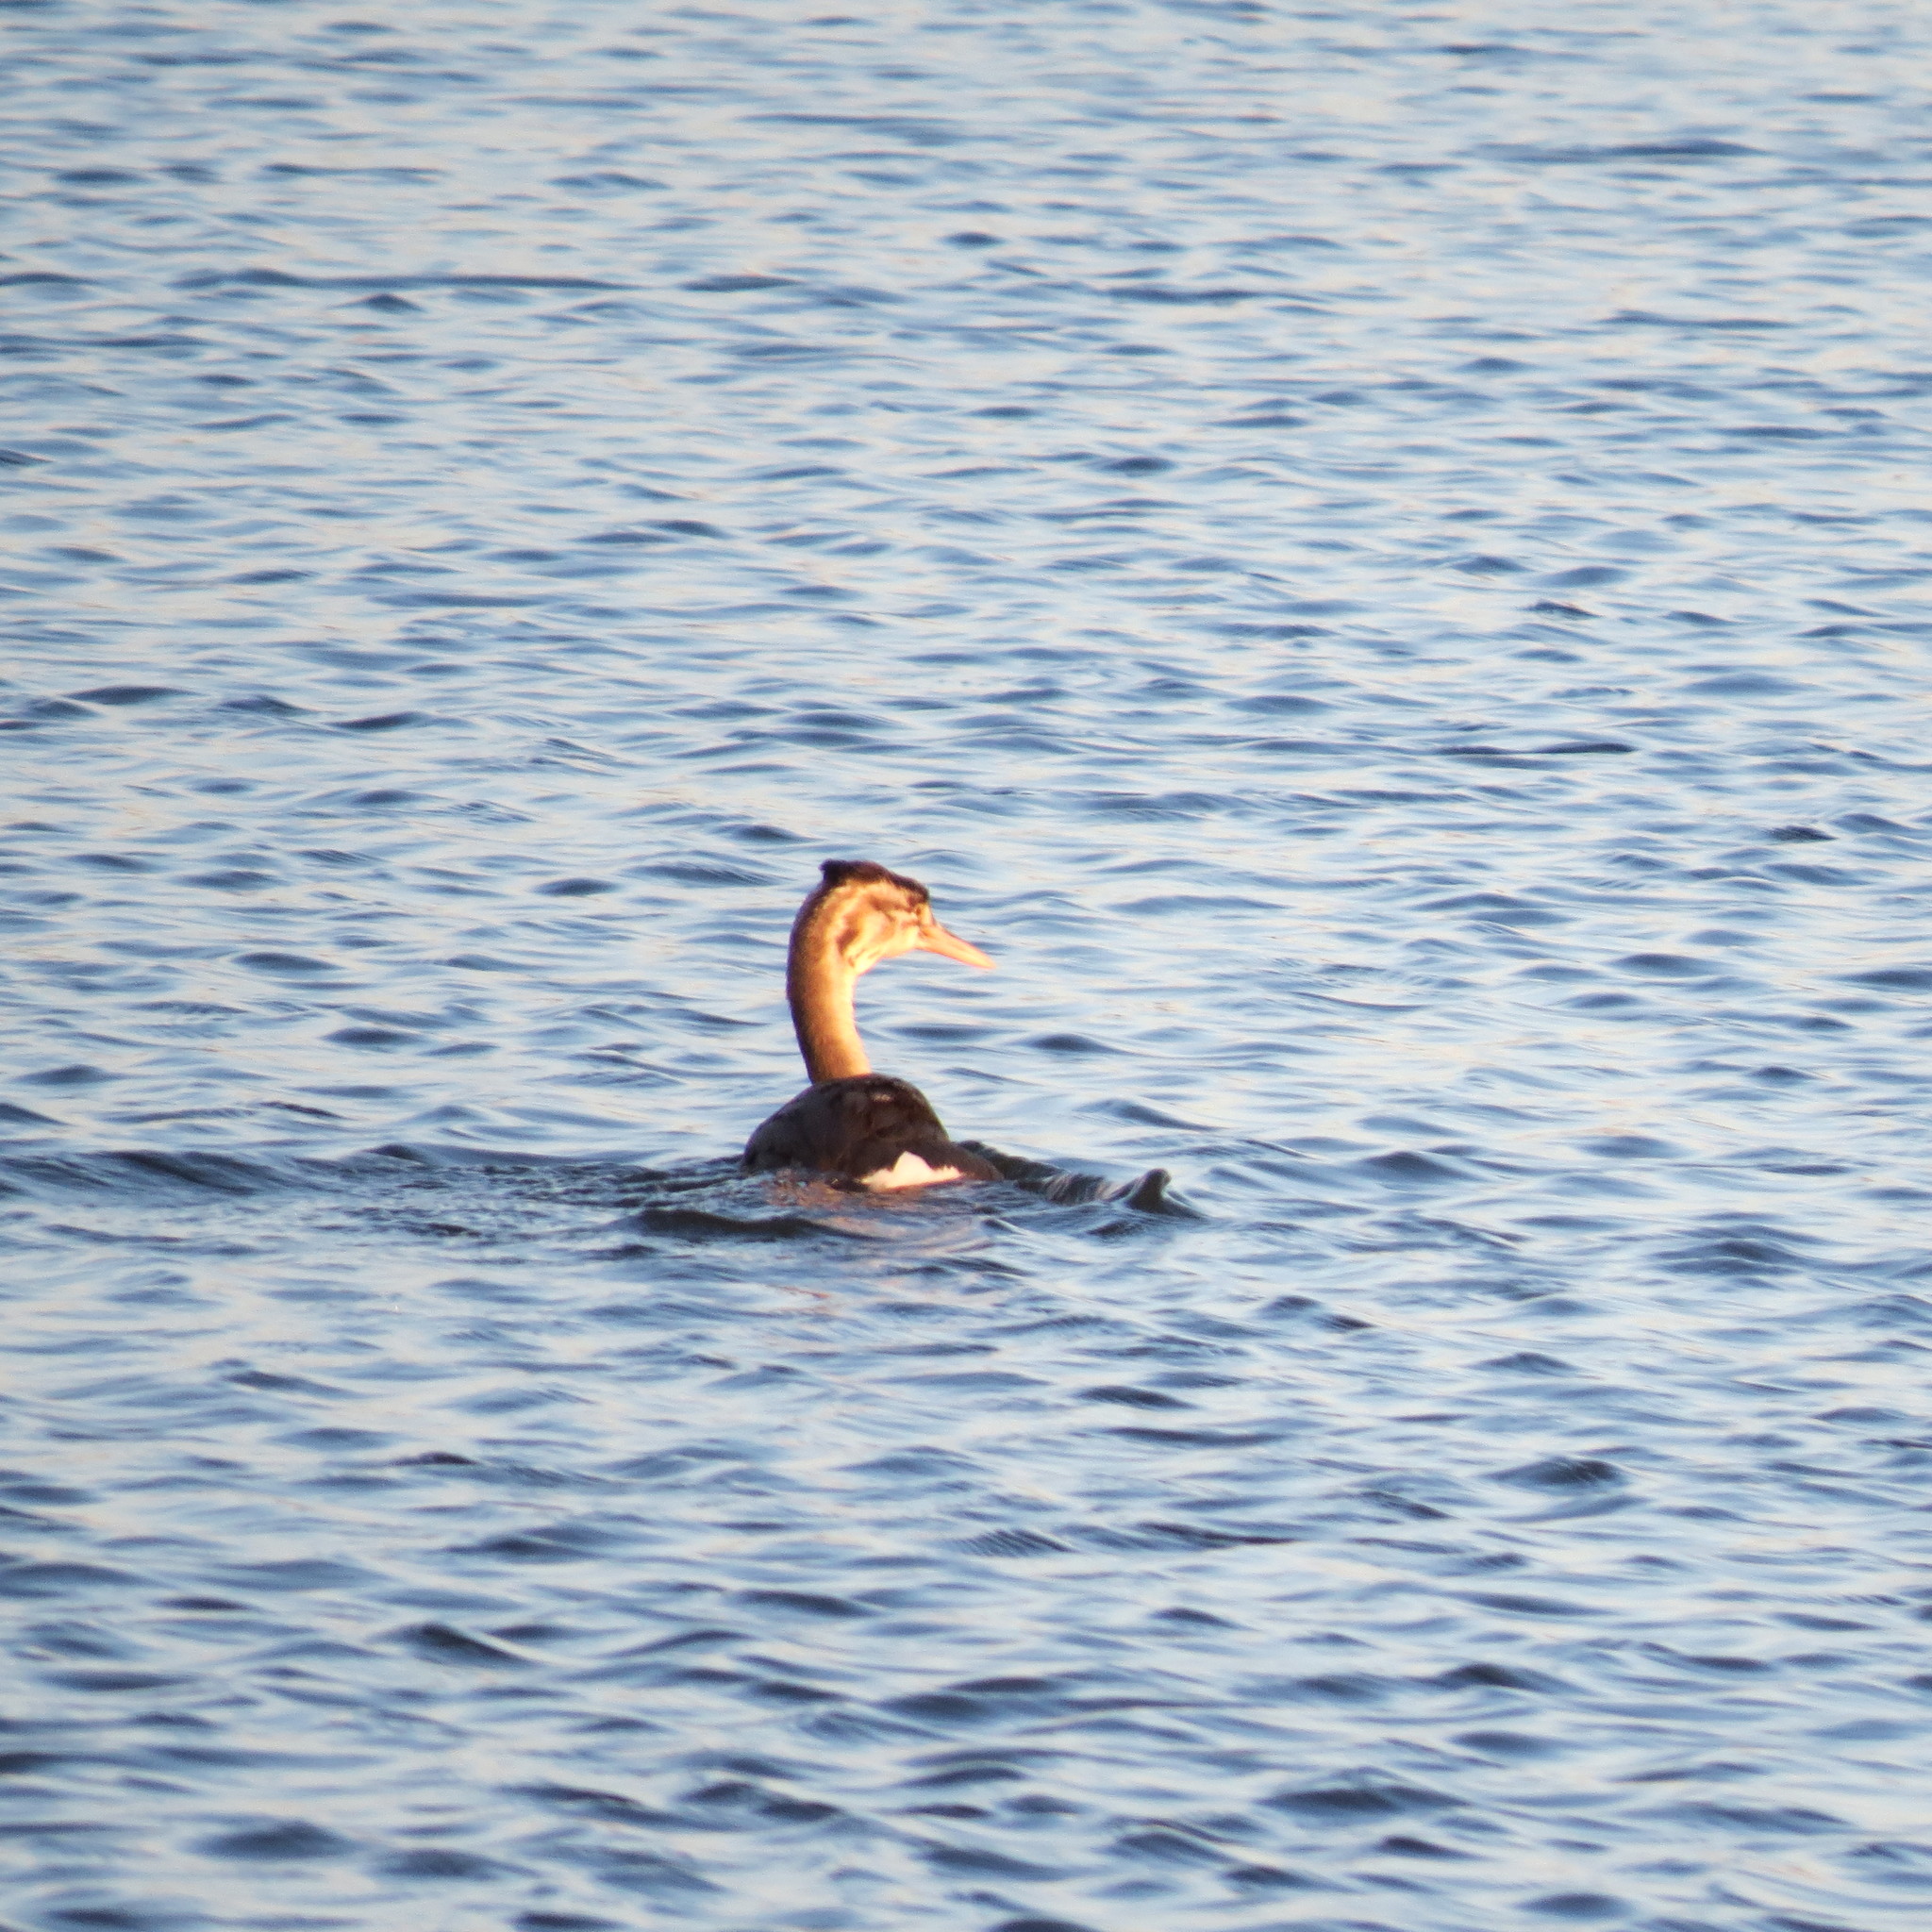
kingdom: Animalia
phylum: Chordata
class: Aves
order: Podicipediformes
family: Podicipedidae
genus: Podiceps
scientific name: Podiceps cristatus
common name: Great crested grebe
